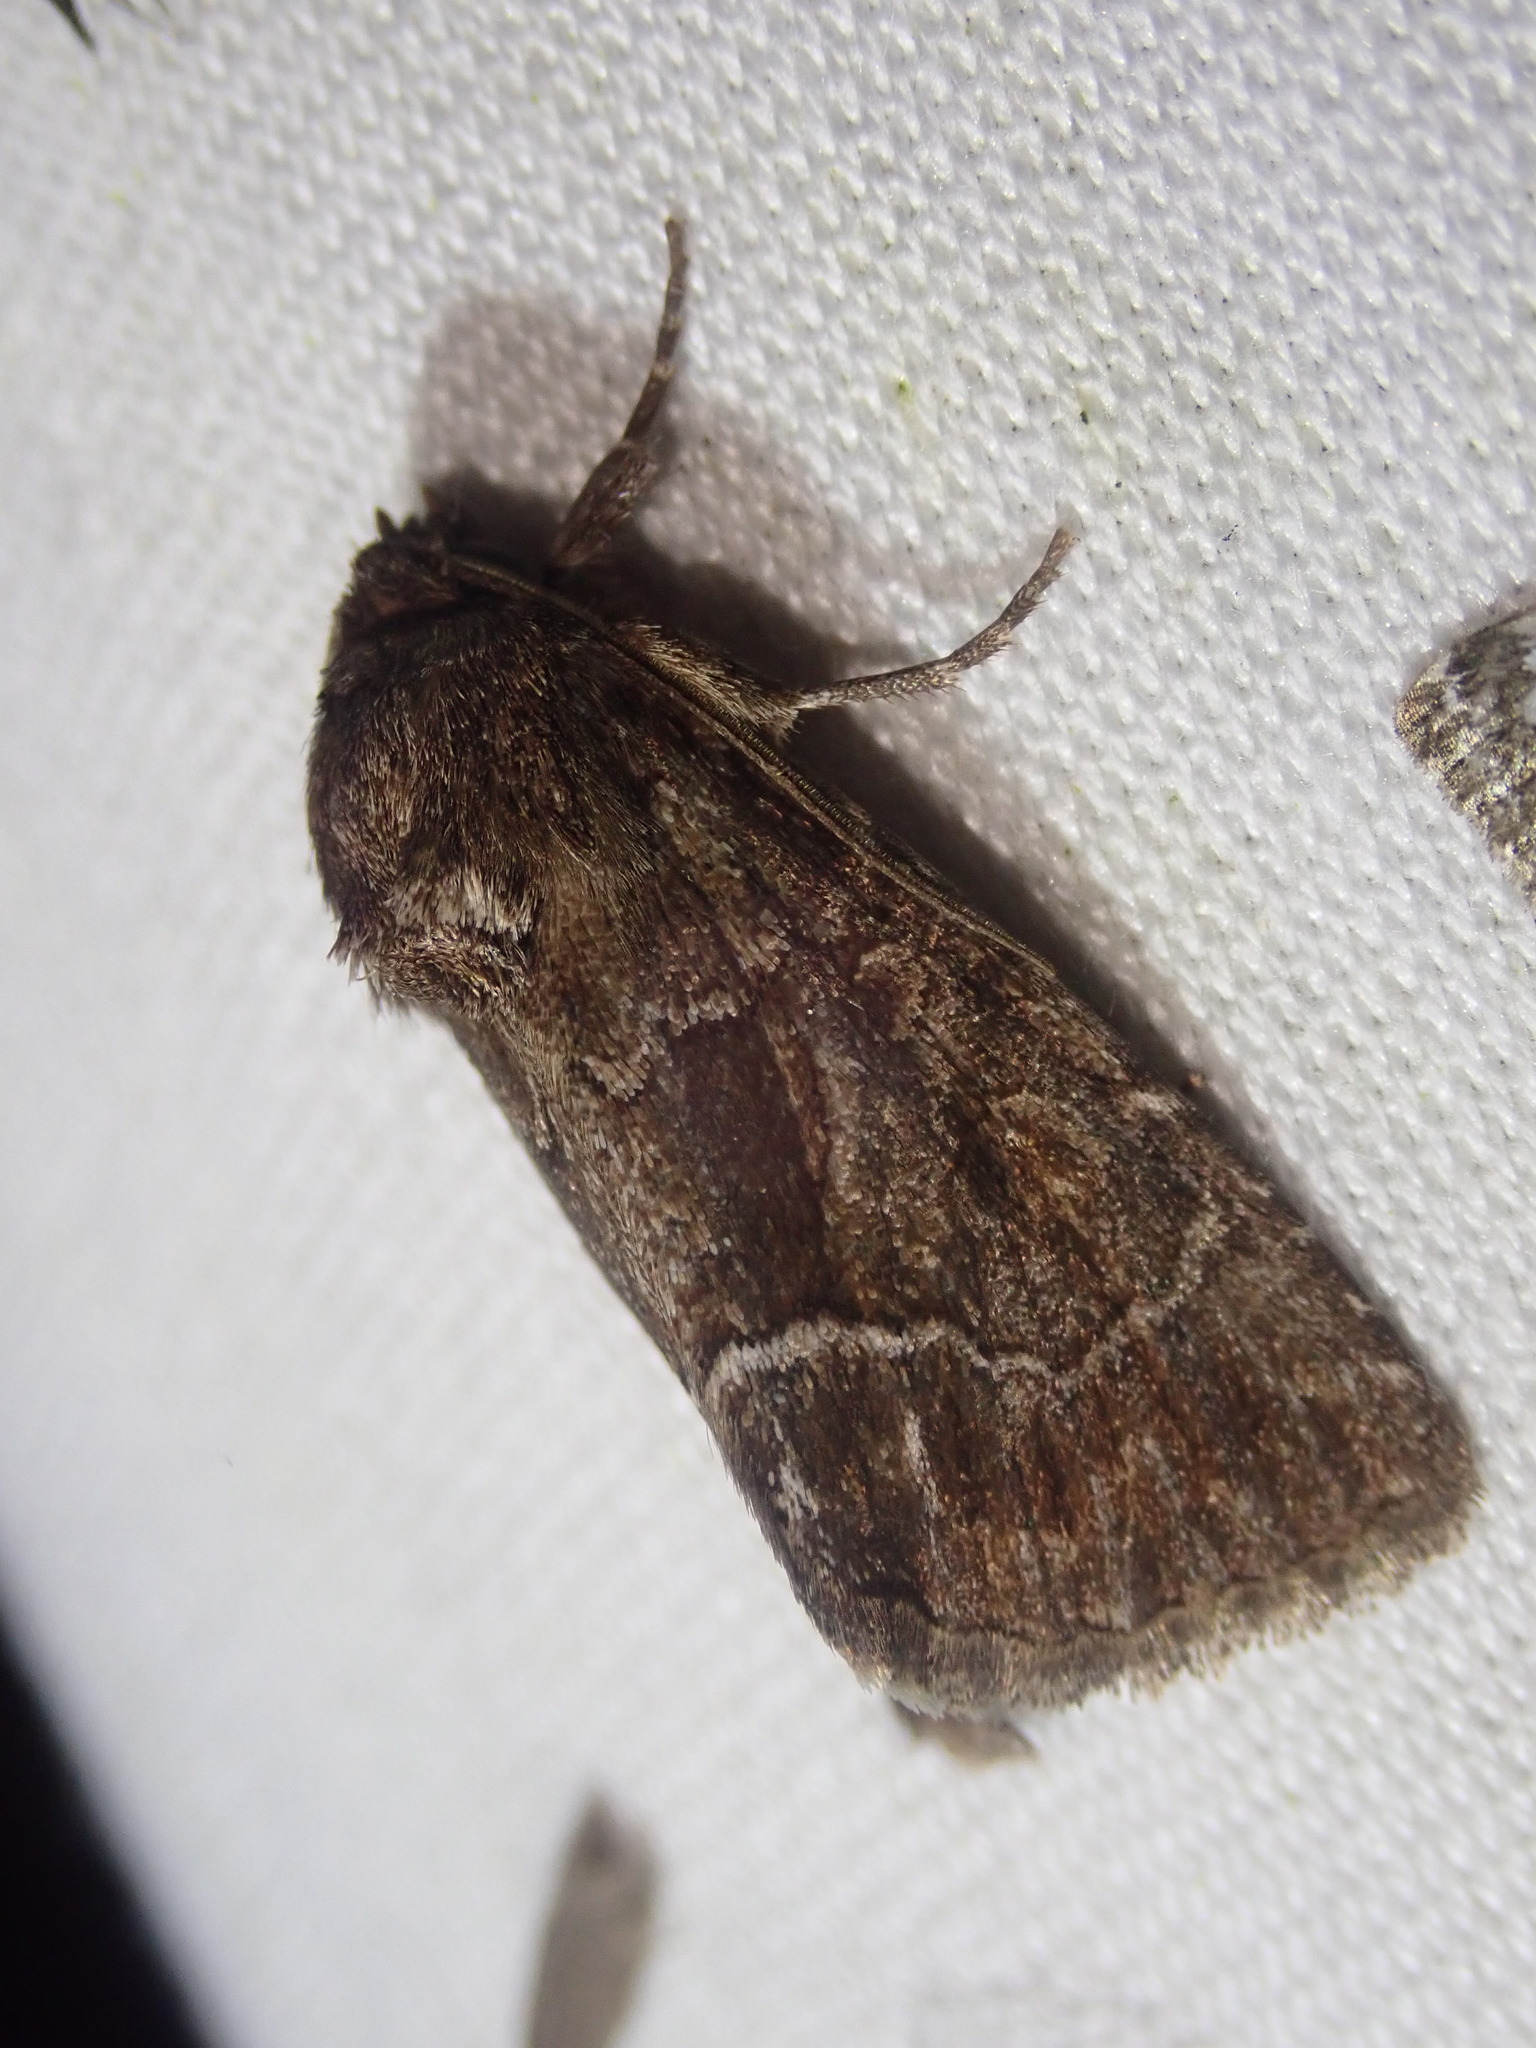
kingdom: Animalia
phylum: Arthropoda
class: Insecta
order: Lepidoptera
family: Noctuidae
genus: Thalpophila
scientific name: Thalpophila matura
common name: Straw underwing
